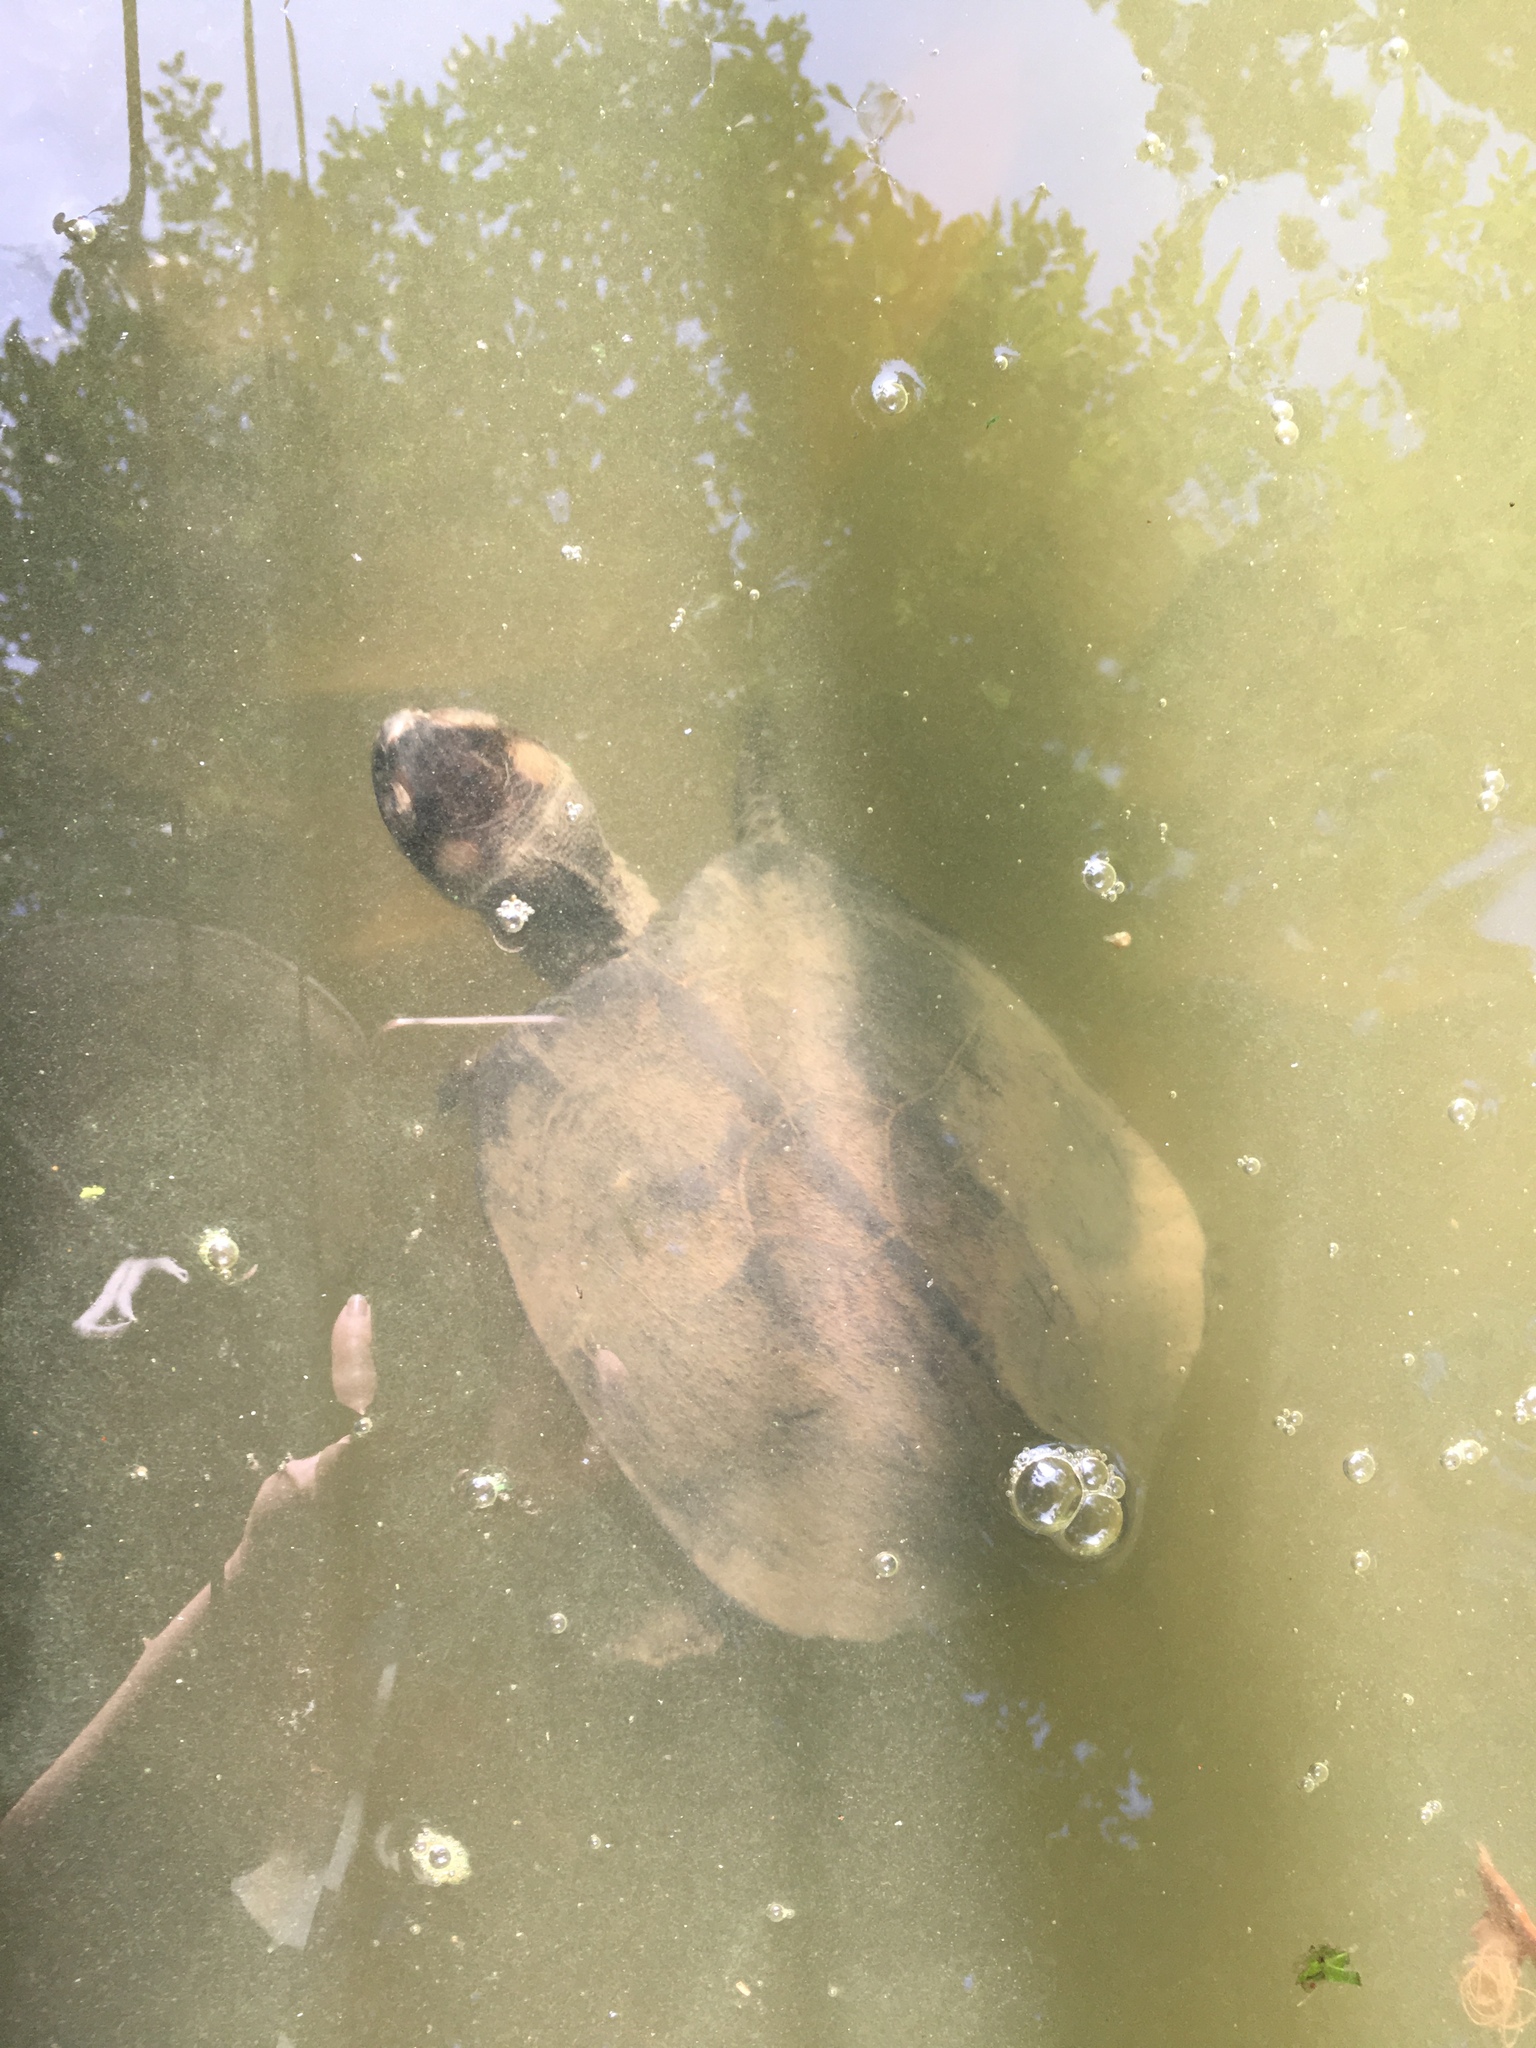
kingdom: Animalia
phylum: Chordata
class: Testudines
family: Geoemydidae
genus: Siebenrockiella
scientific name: Siebenrockiella crassicollis
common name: Black marsh turtle
